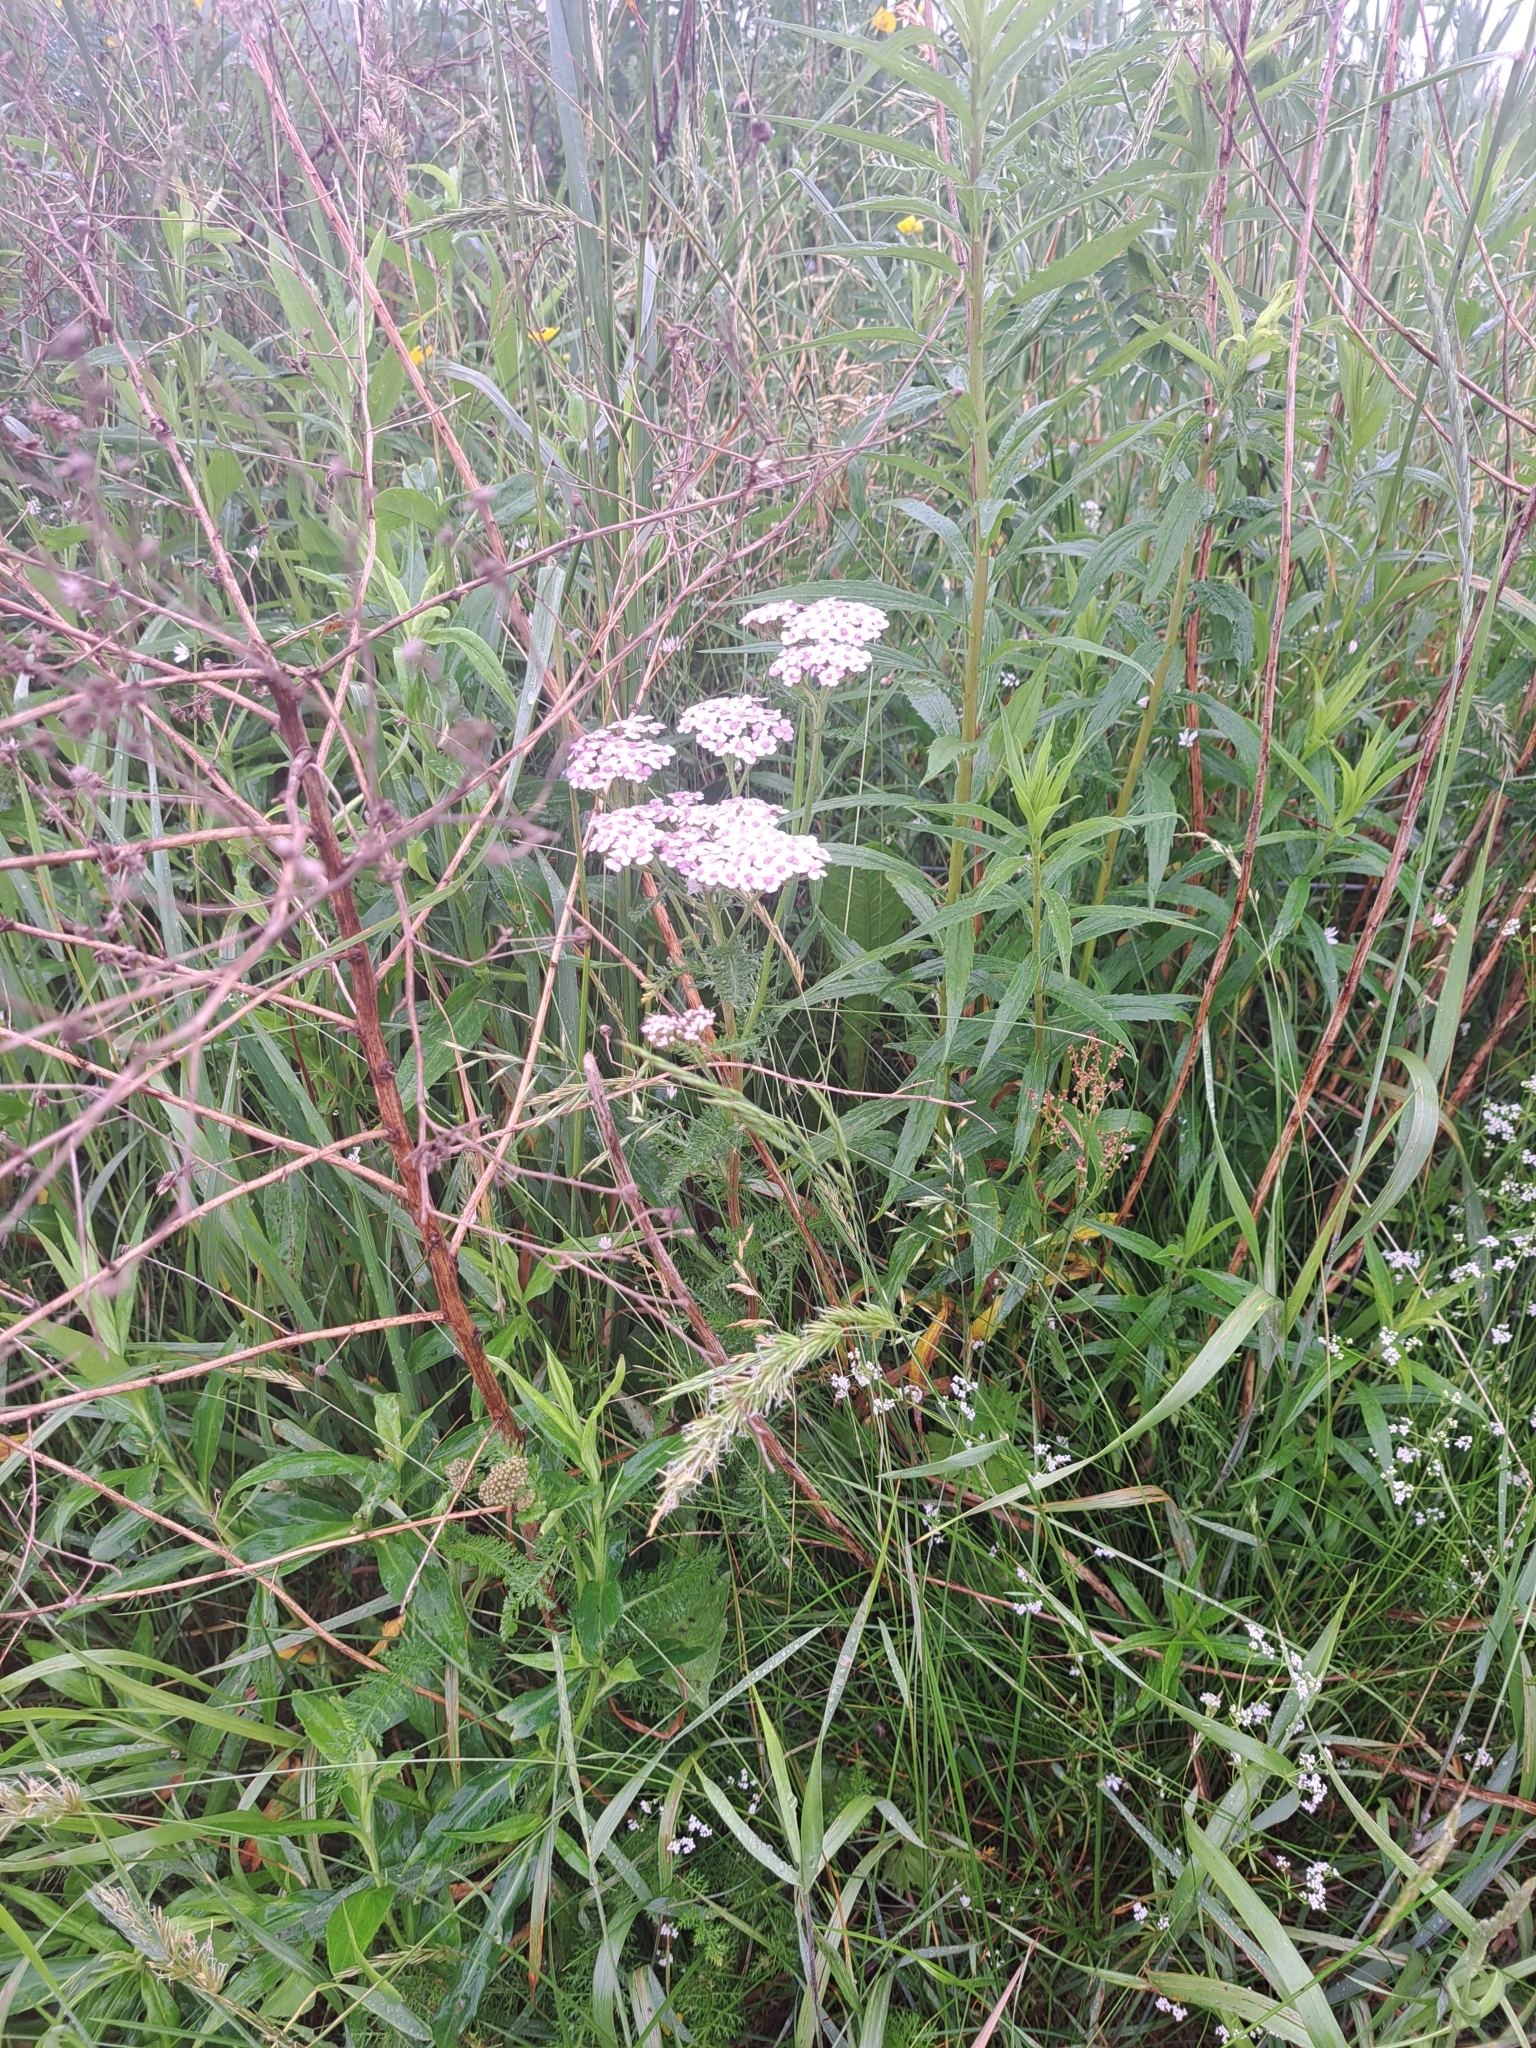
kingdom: Plantae
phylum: Tracheophyta
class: Magnoliopsida
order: Asterales
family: Asteraceae
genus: Achillea
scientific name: Achillea millefolium
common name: Yarrow
